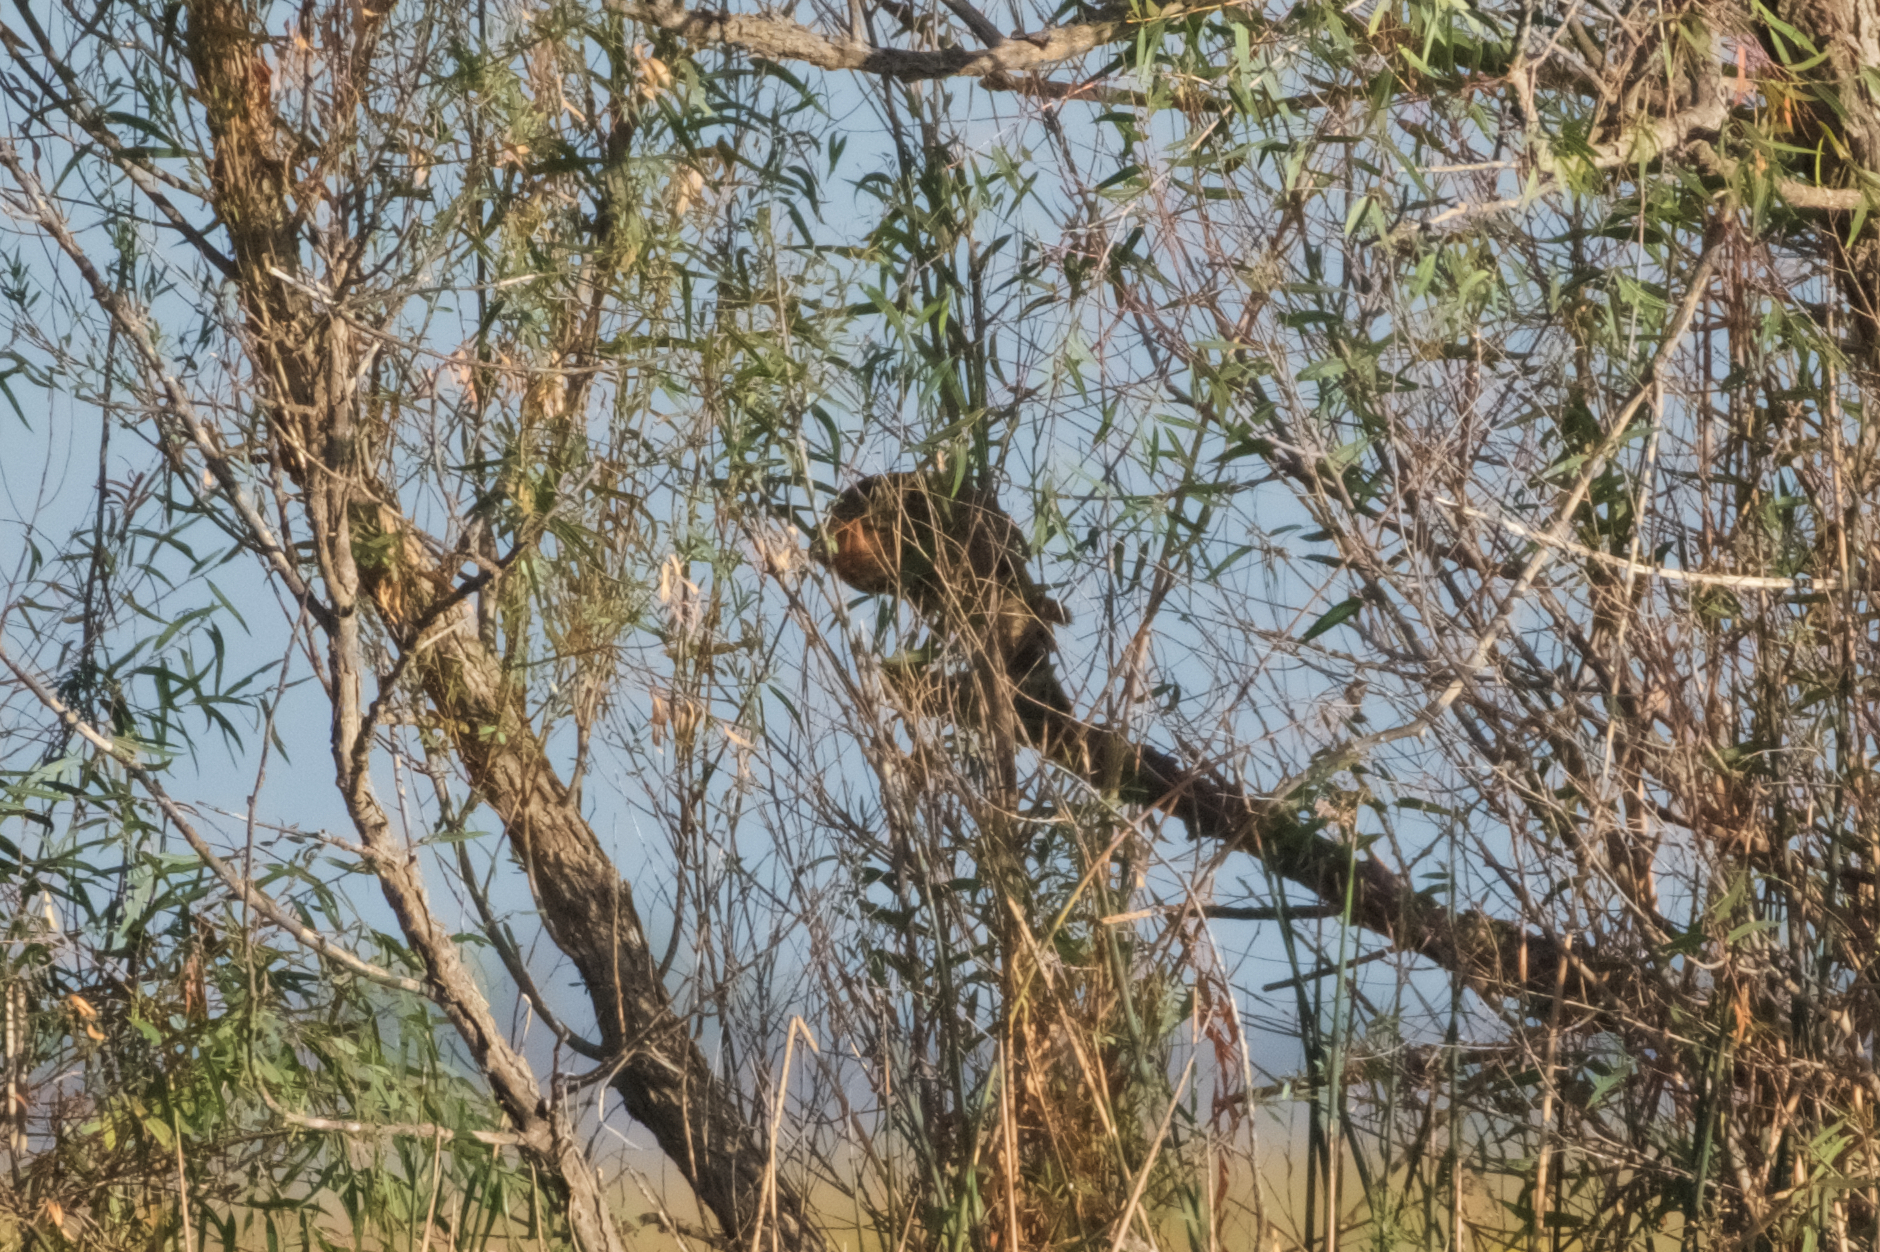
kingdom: Animalia
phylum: Chordata
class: Aves
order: Accipitriformes
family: Accipitridae
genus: Accipiter
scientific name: Accipiter cooperii
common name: Cooper's hawk
